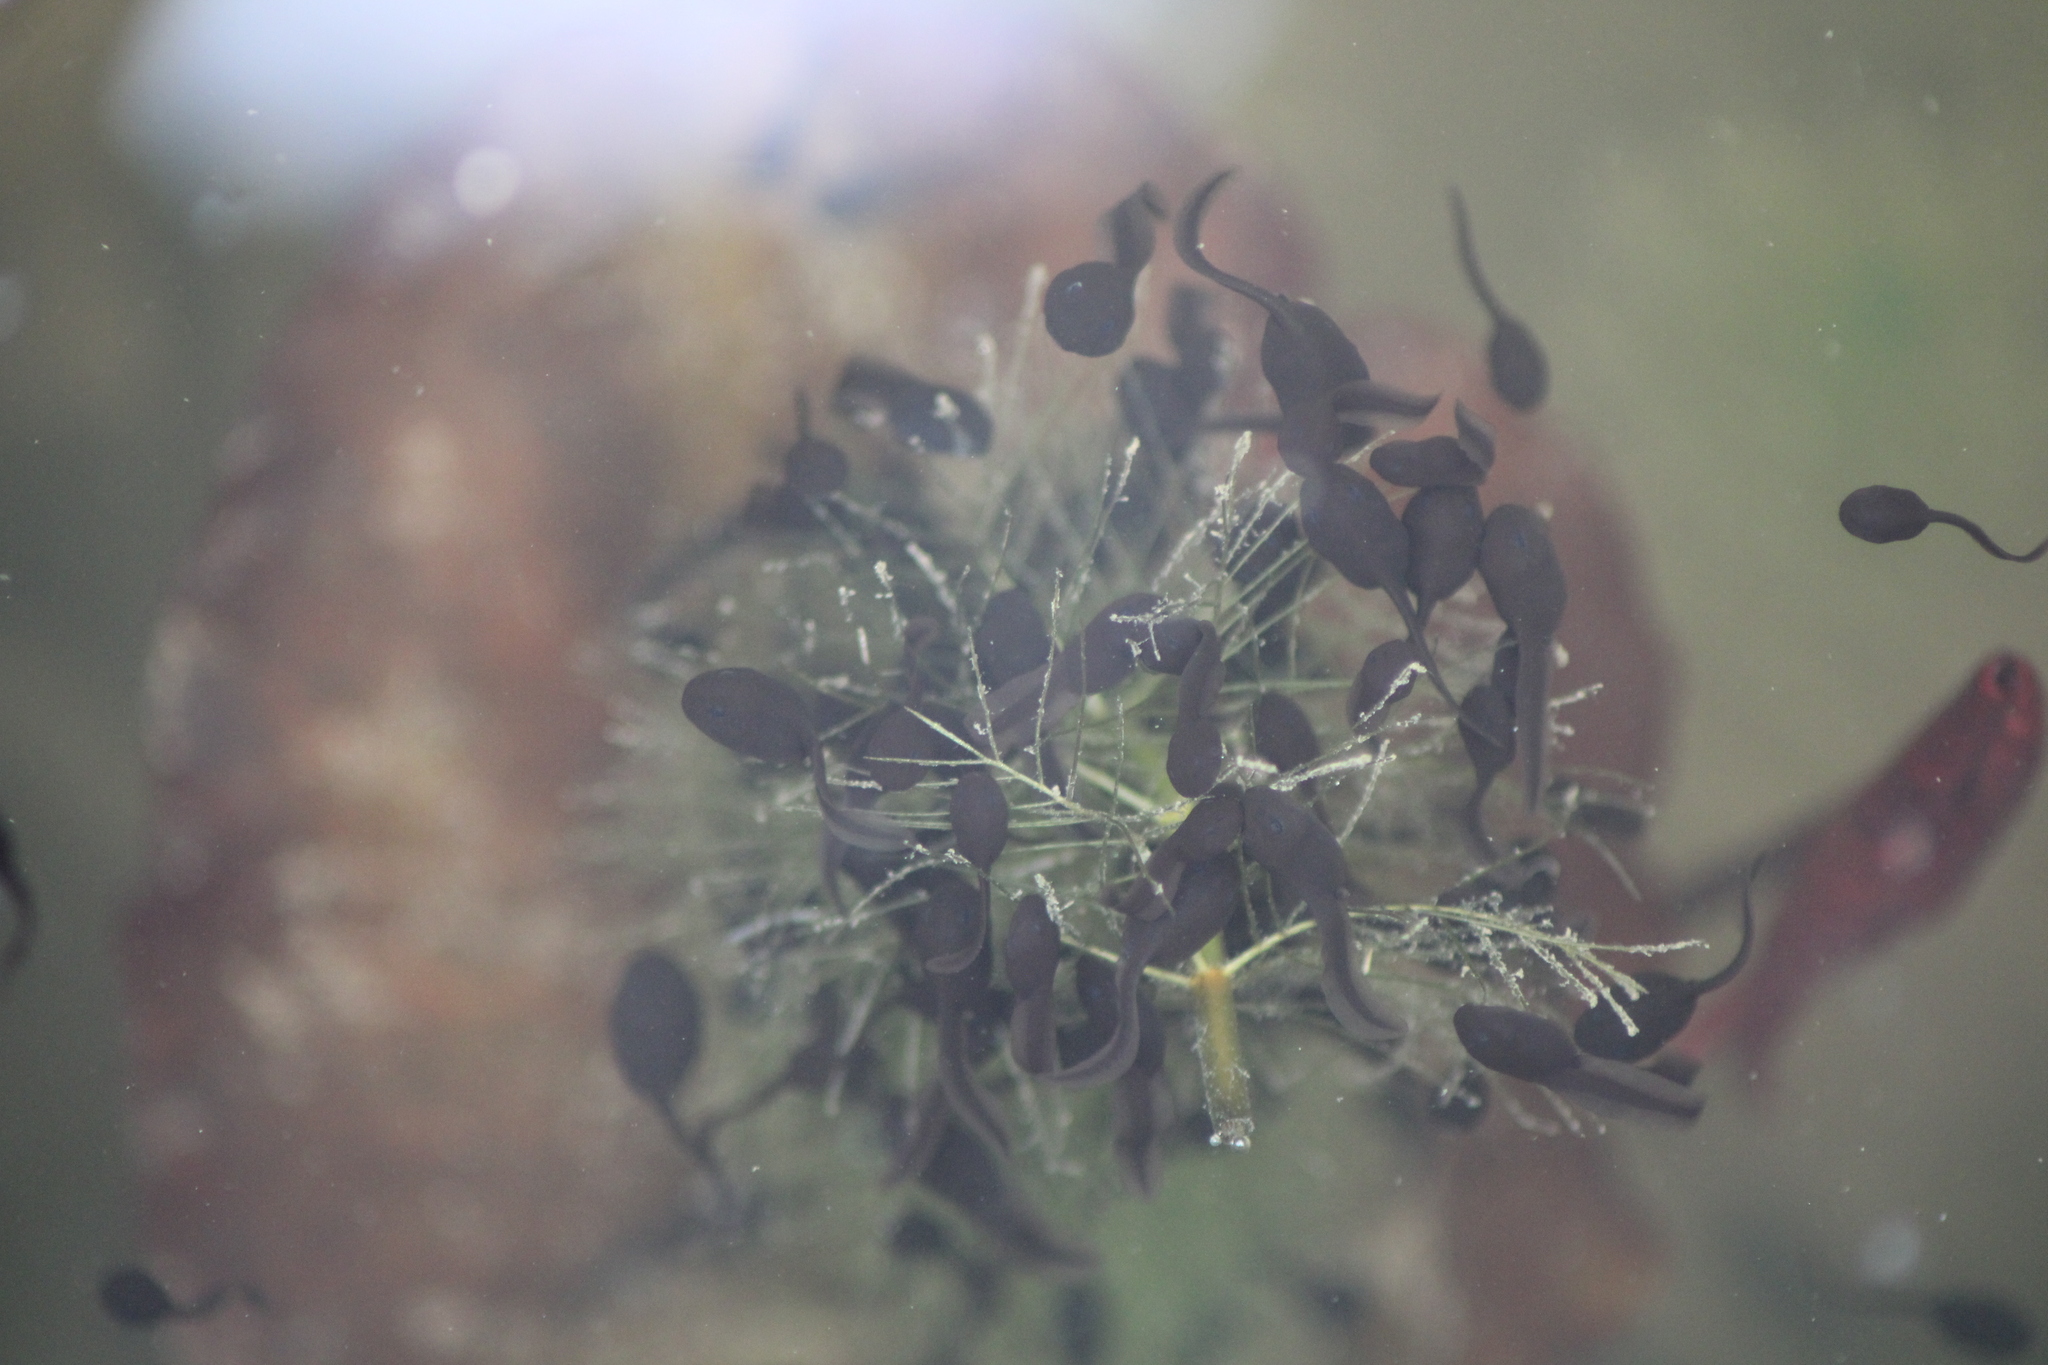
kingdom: Animalia
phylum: Chordata
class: Amphibia
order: Anura
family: Bufonidae
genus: Bufo
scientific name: Bufo bufo
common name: Common toad
